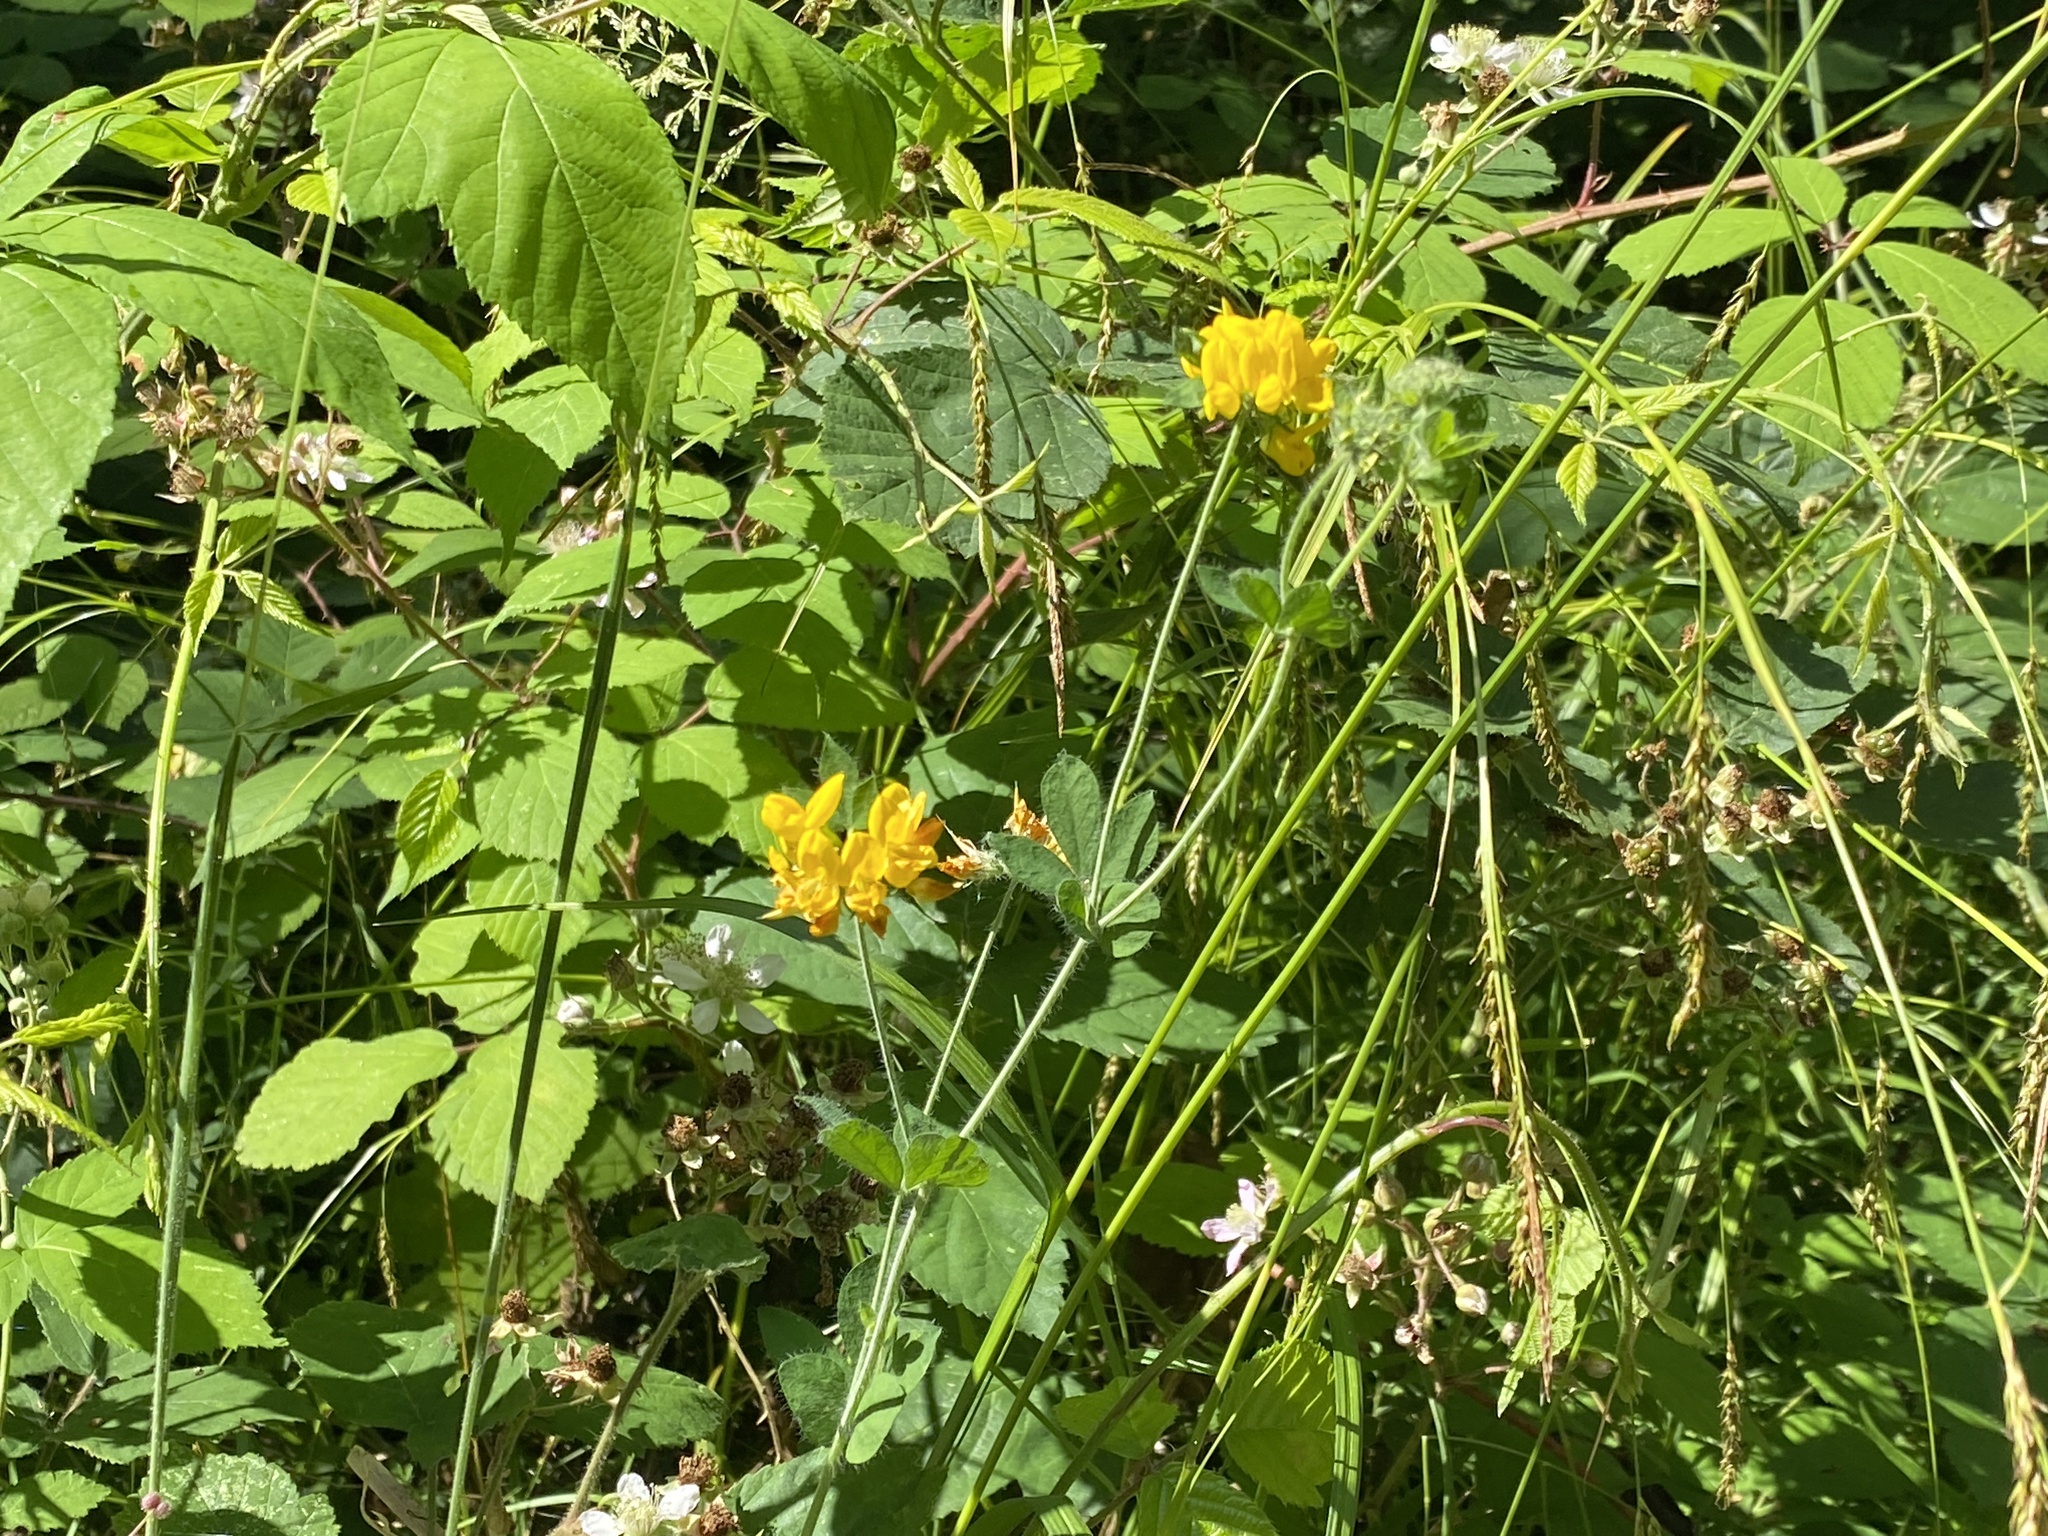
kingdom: Plantae
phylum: Tracheophyta
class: Magnoliopsida
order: Fabales
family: Fabaceae
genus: Lotus
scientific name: Lotus pedunculatus
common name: Greater birdsfoot-trefoil
